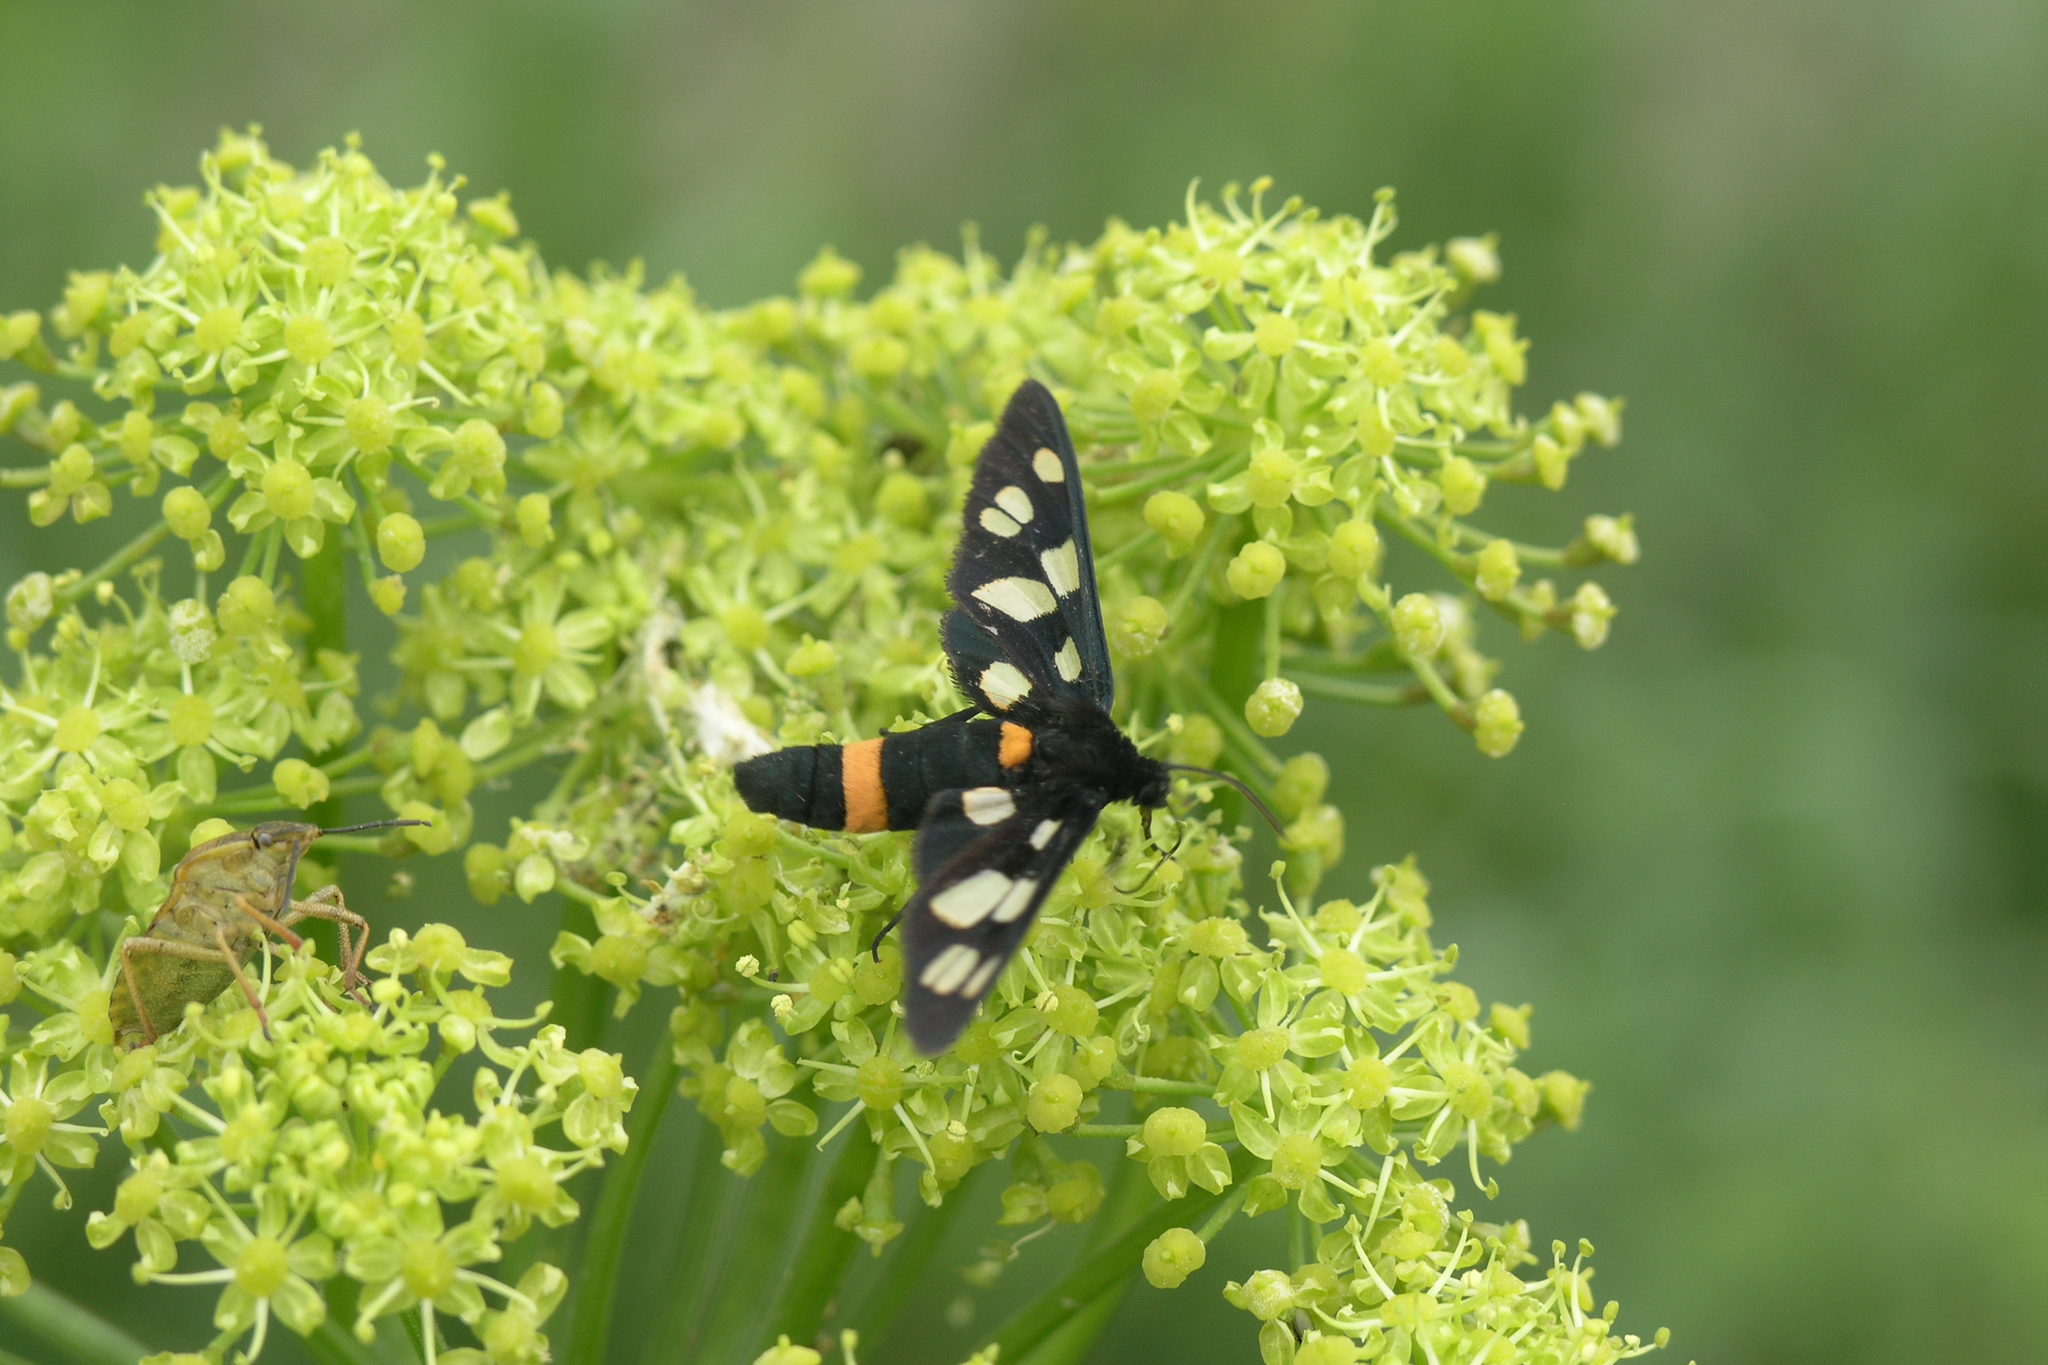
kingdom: Animalia
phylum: Arthropoda
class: Insecta
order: Lepidoptera
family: Erebidae
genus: Amata
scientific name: Amata caspia
